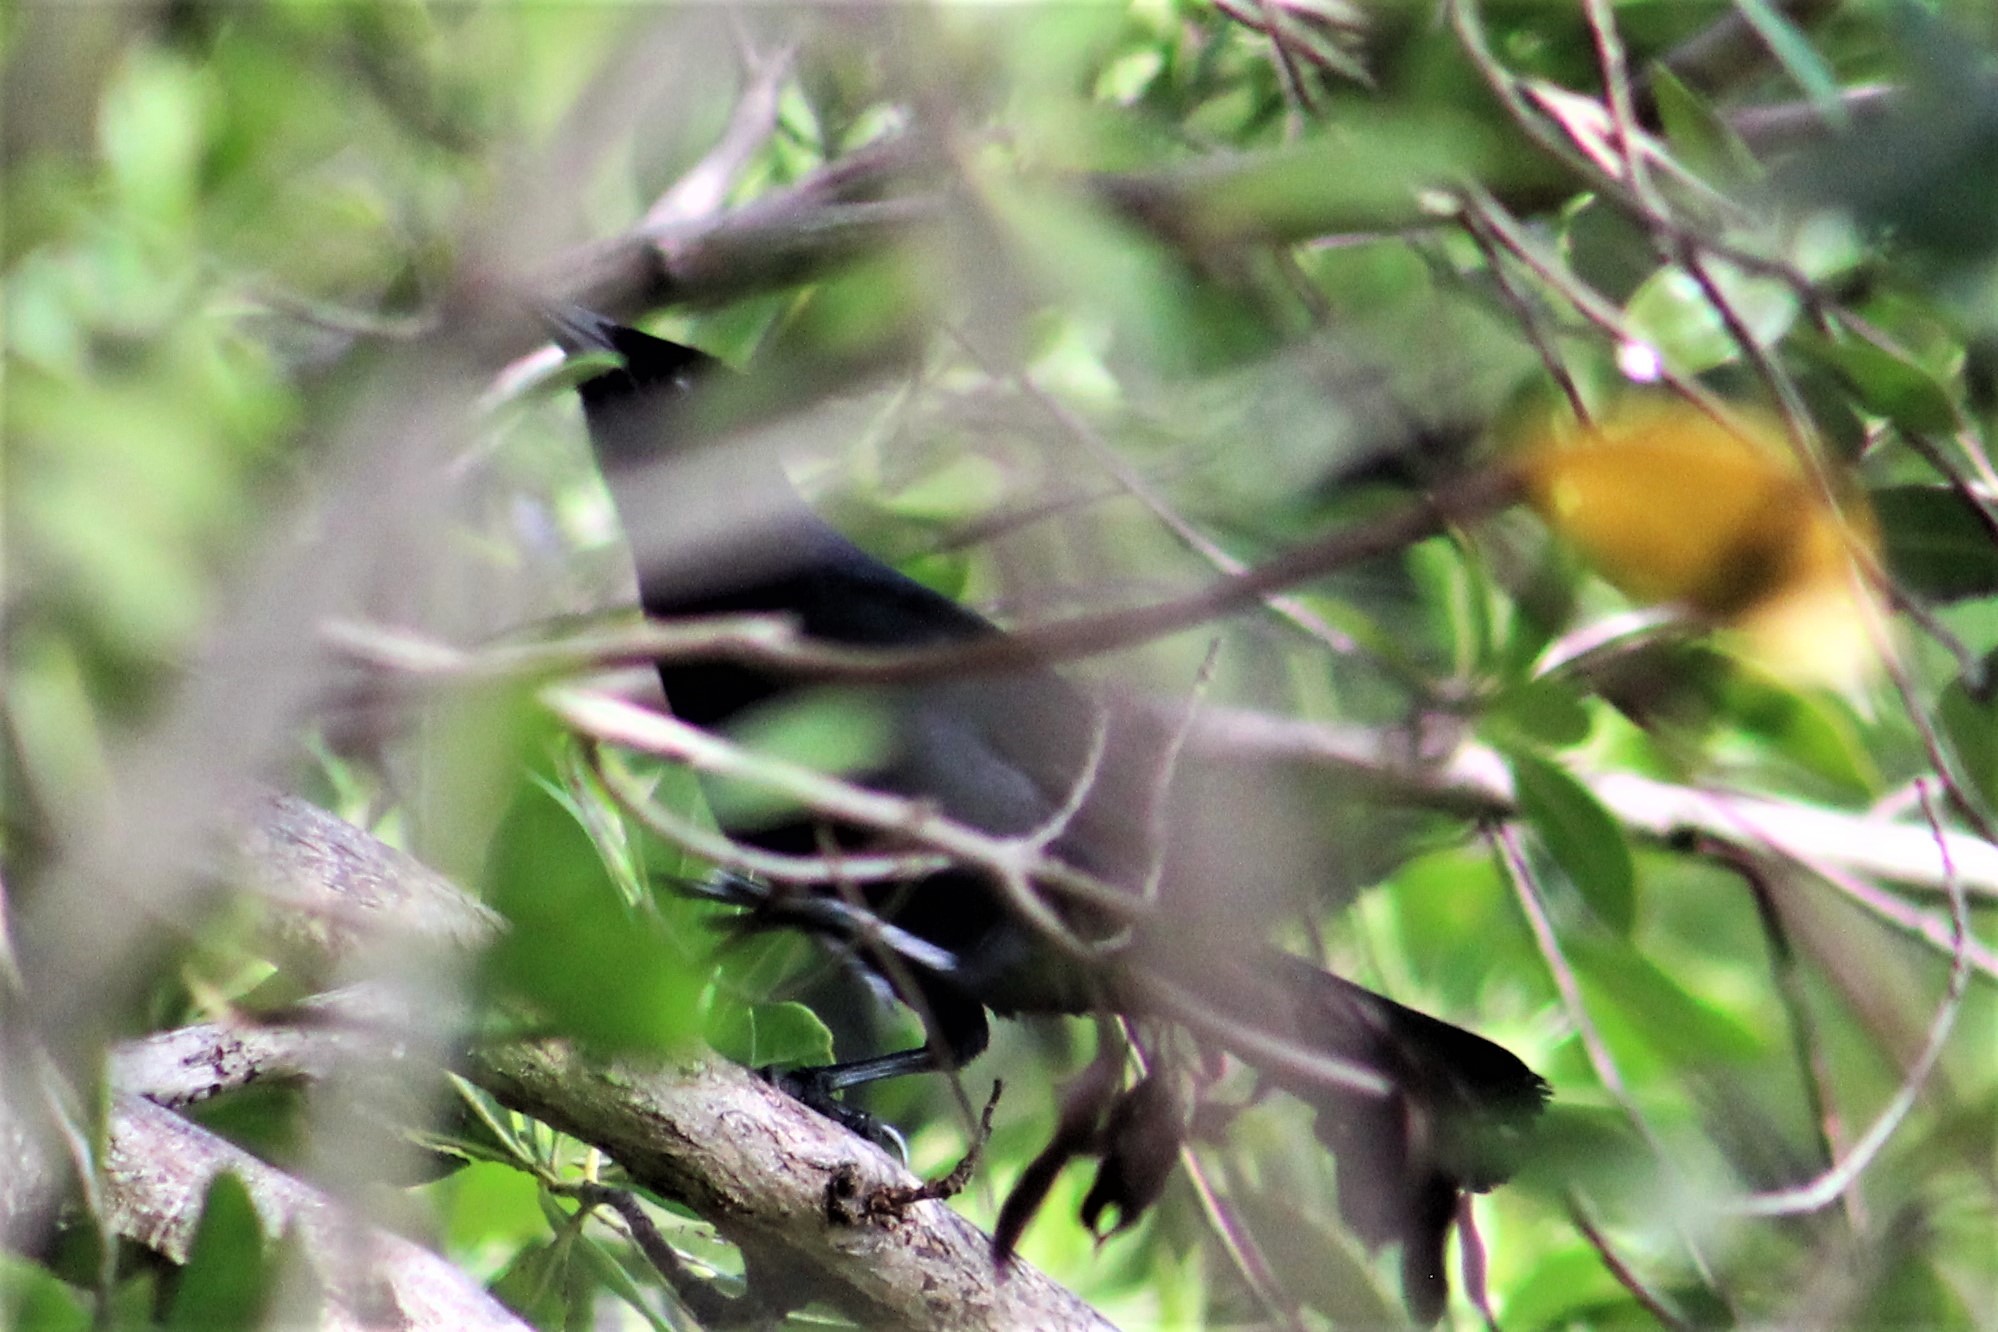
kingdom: Animalia
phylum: Chordata
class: Aves
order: Passeriformes
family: Icteridae
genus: Dives
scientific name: Dives dives
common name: Melodious blackbird
